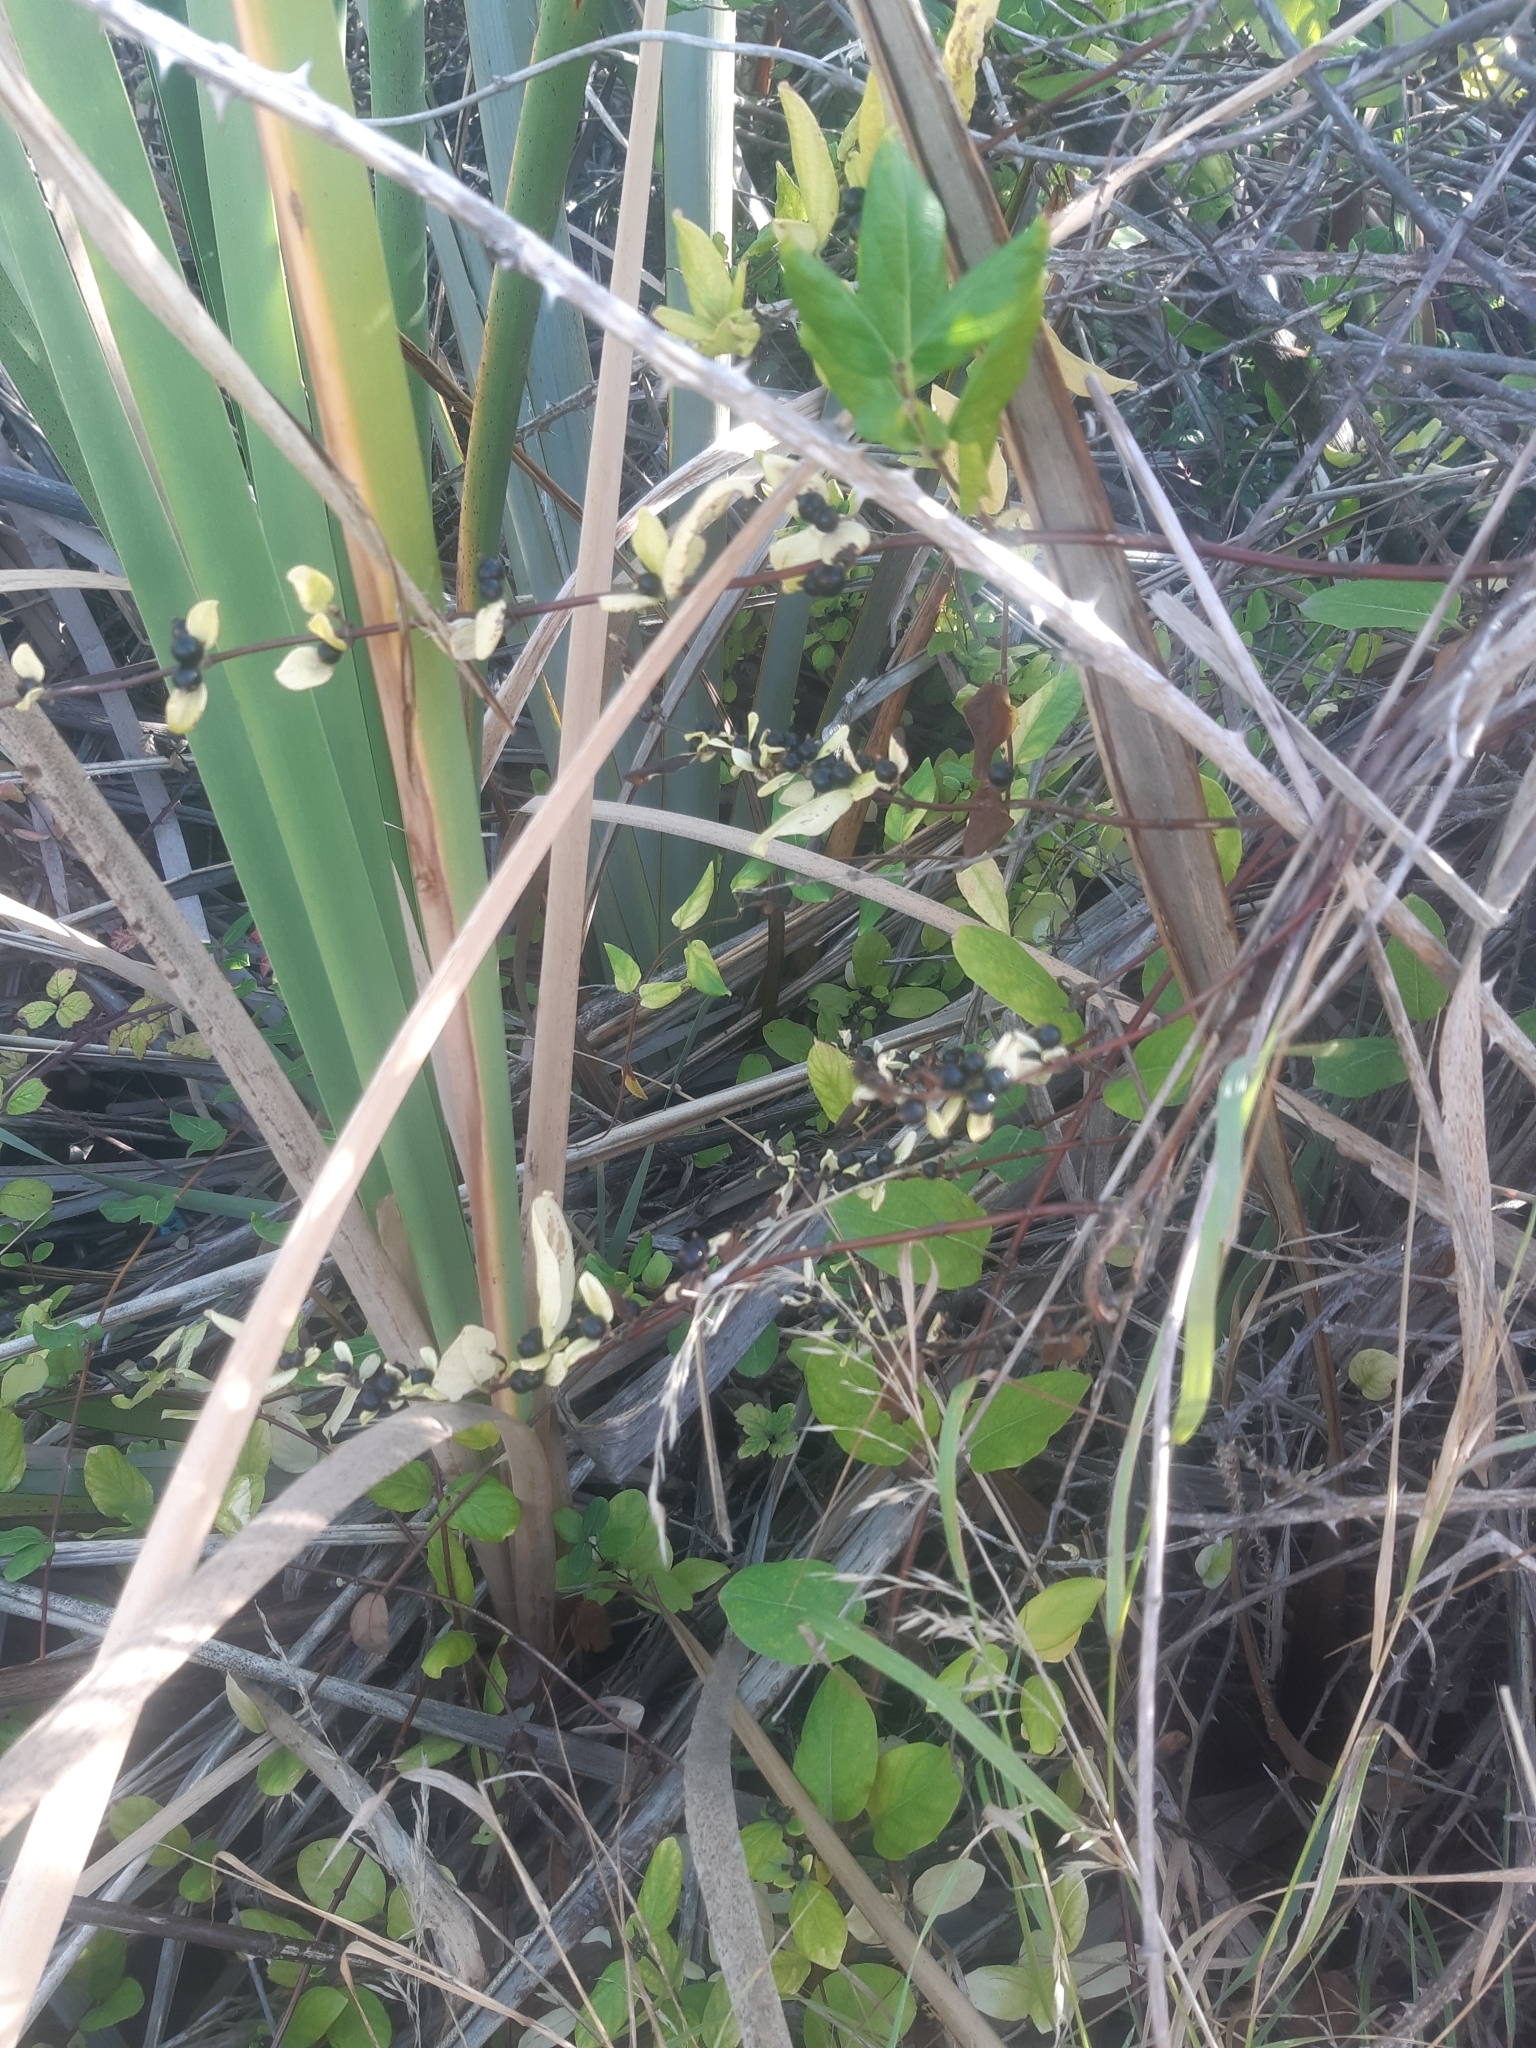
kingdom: Plantae
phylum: Tracheophyta
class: Magnoliopsida
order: Dipsacales
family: Caprifoliaceae
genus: Lonicera
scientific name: Lonicera japonica
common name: Japanese honeysuckle
